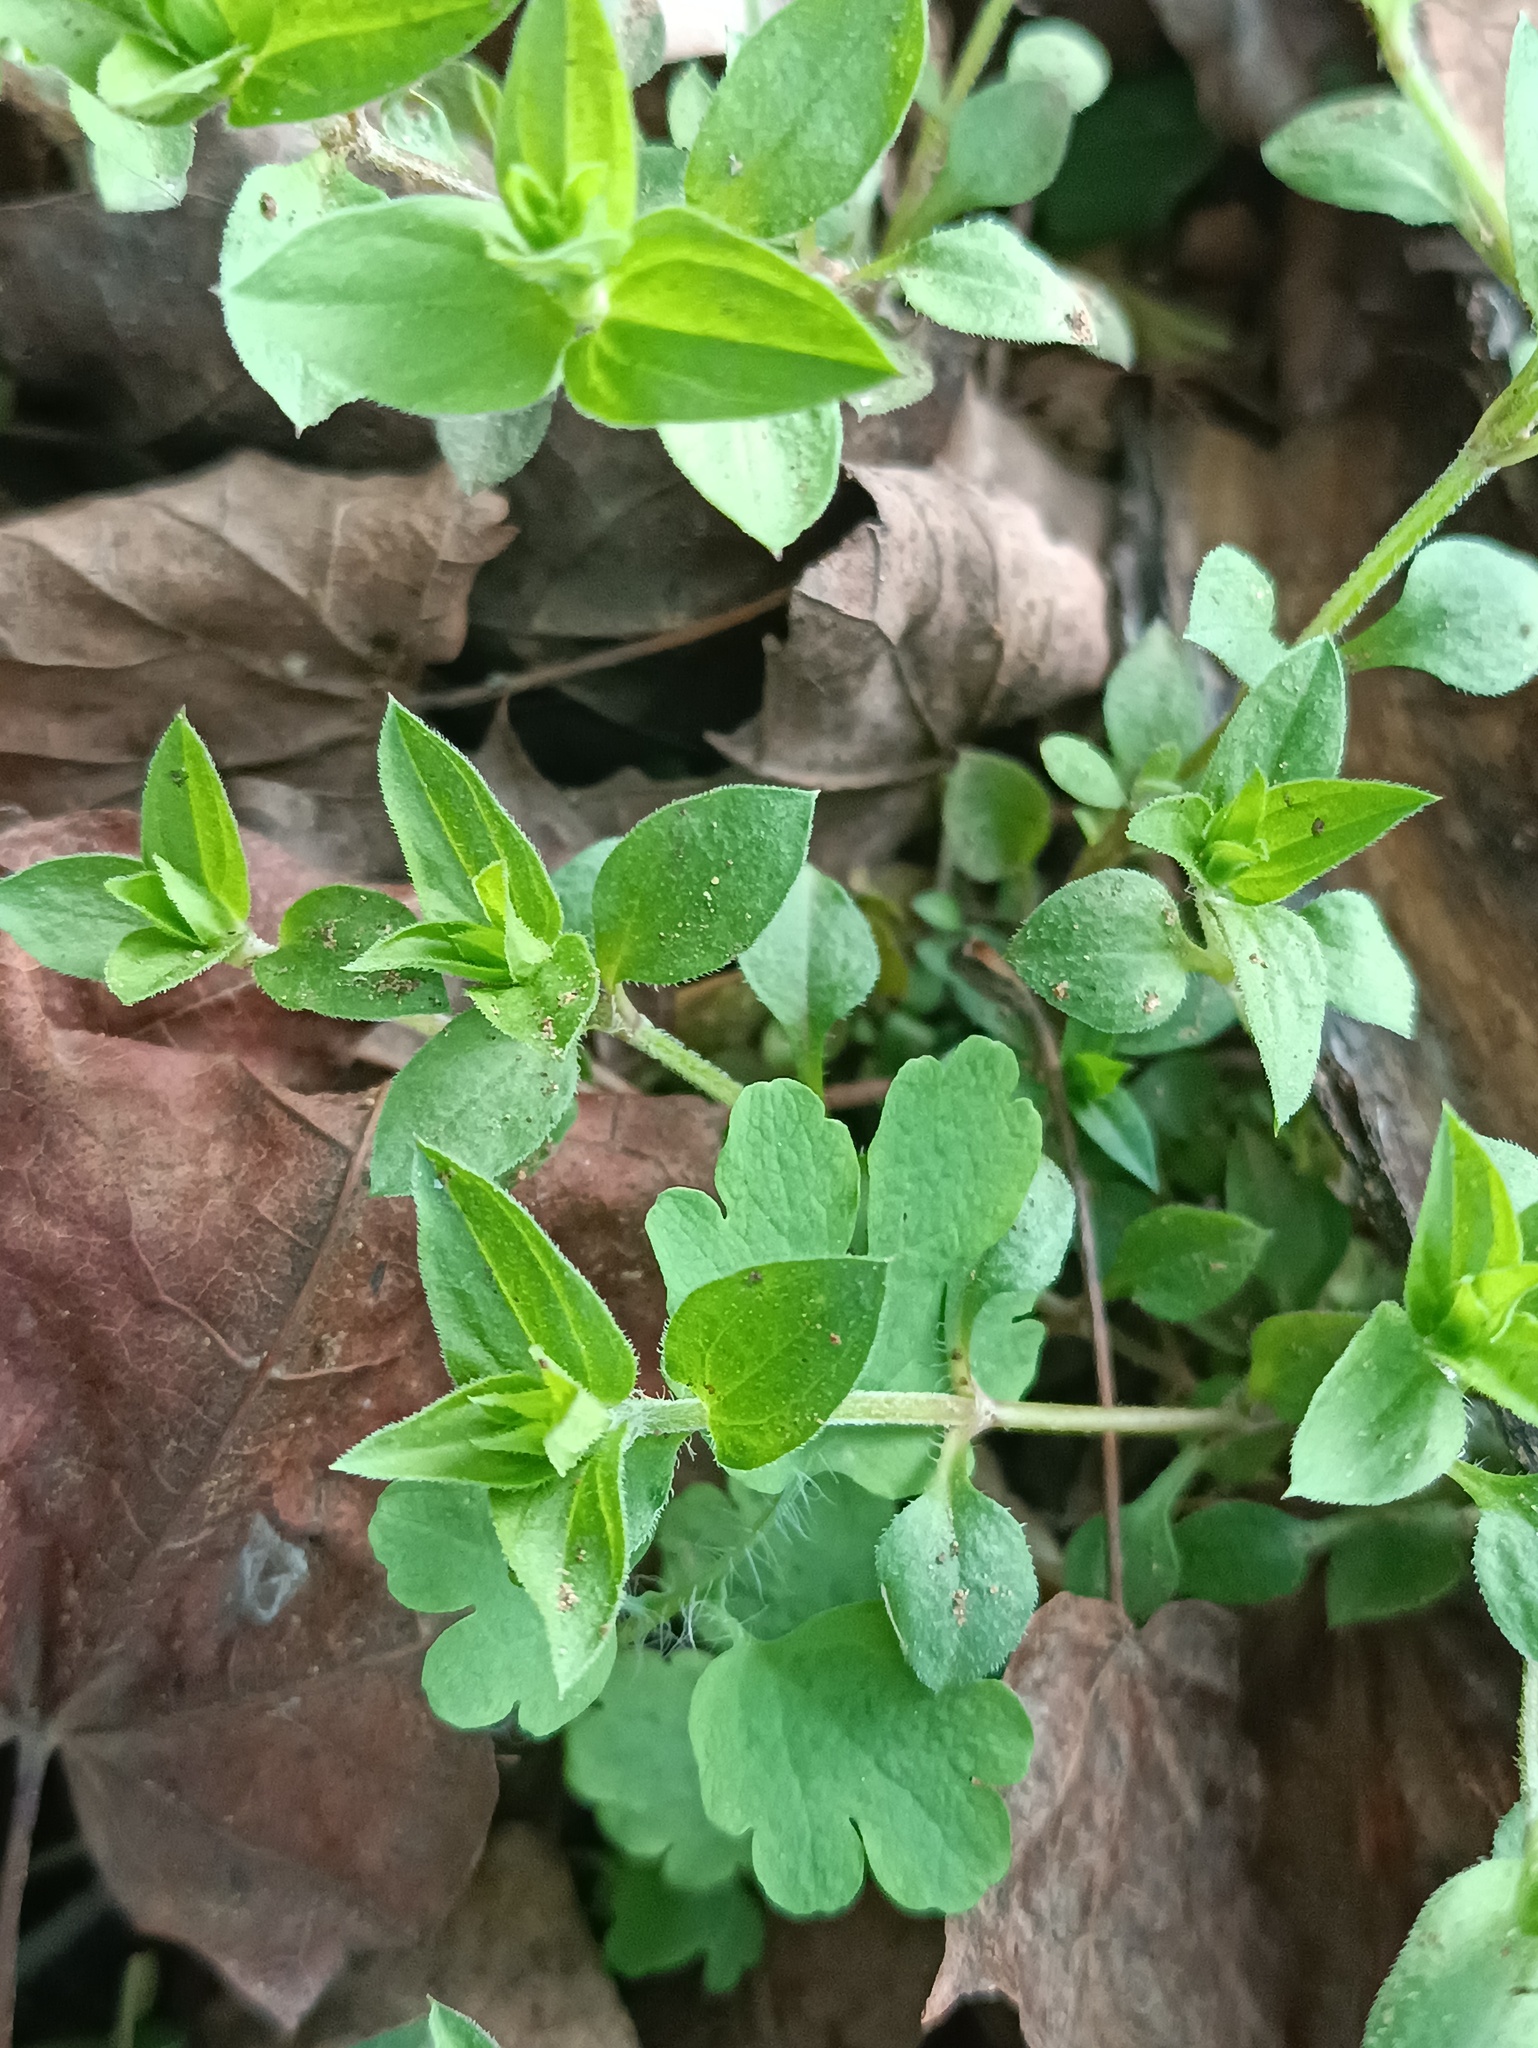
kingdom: Plantae
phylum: Tracheophyta
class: Magnoliopsida
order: Caryophyllales
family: Caryophyllaceae
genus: Moehringia
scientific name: Moehringia trinervia
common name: Three-nerved sandwort
